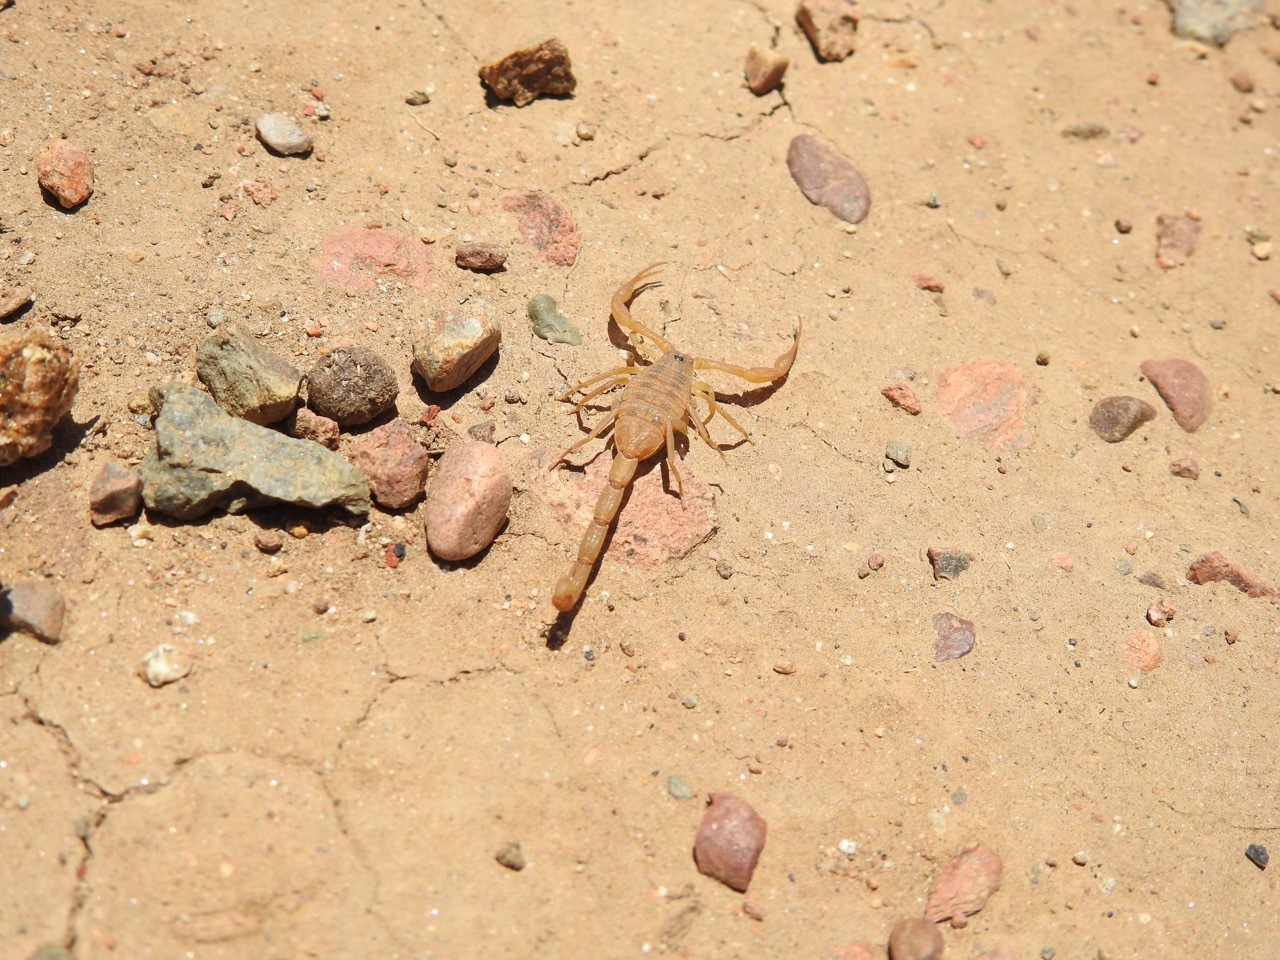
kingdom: Animalia
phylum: Arthropoda
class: Arachnida
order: Scorpiones
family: Buthidae
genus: Centruroides
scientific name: Centruroides exilicauda
